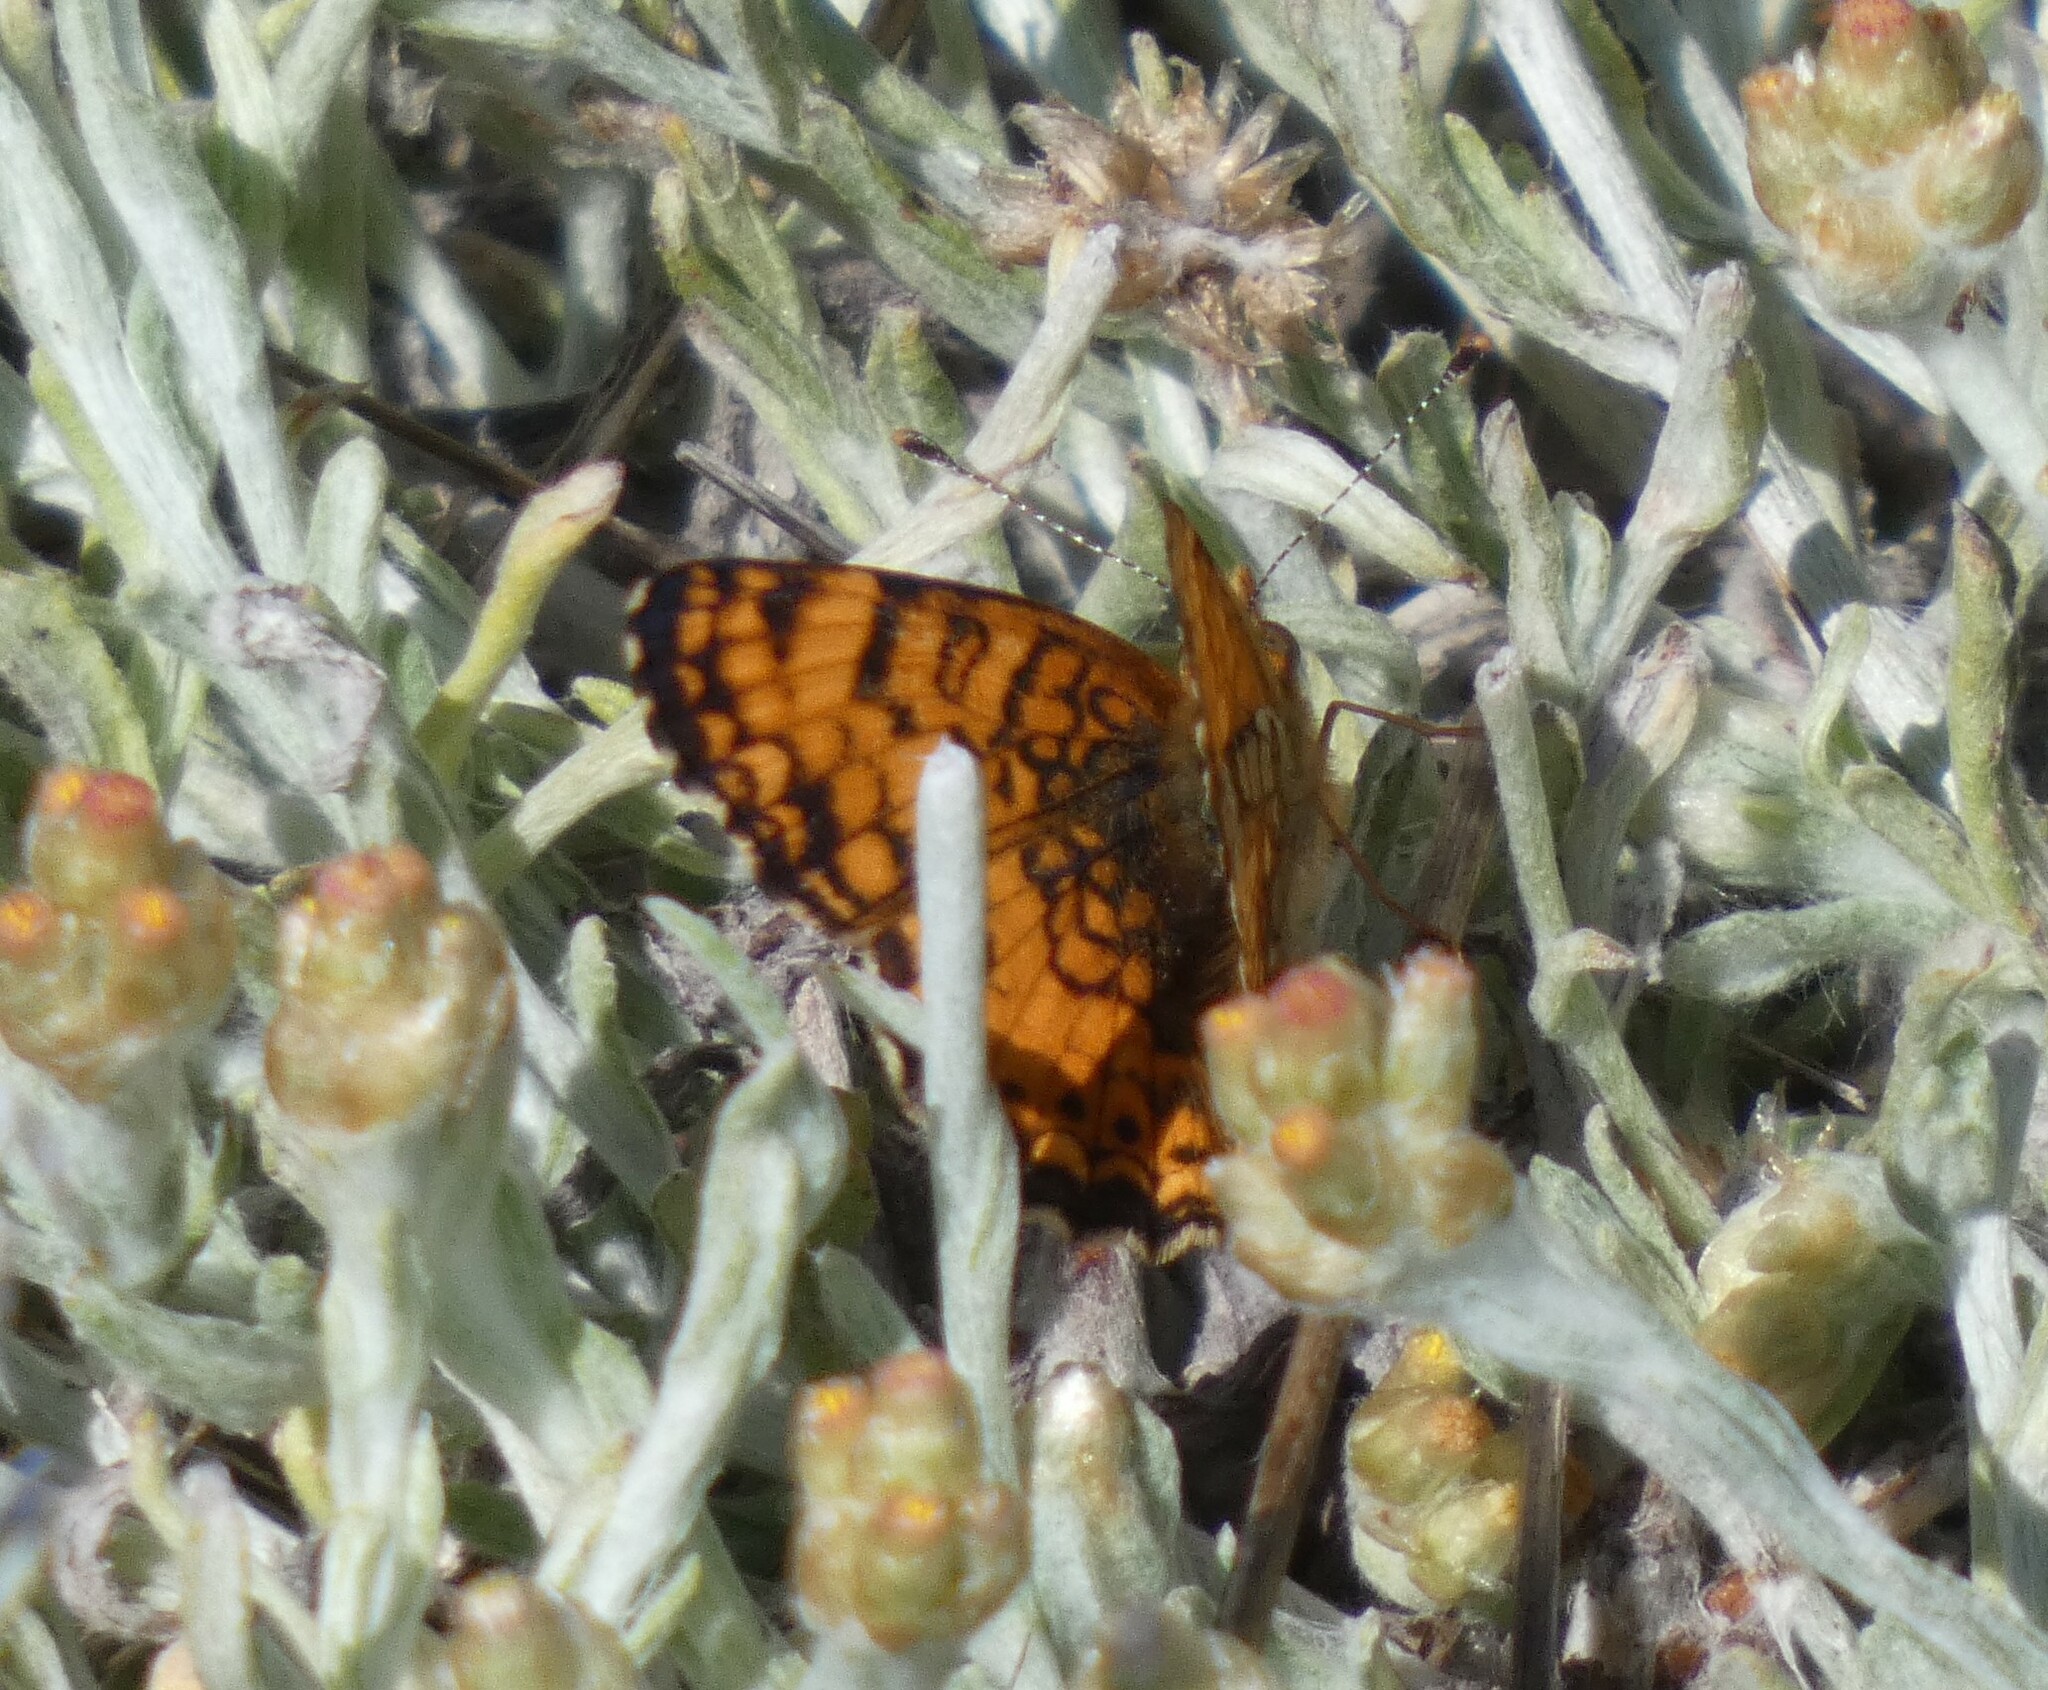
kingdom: Animalia
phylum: Arthropoda
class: Insecta
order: Lepidoptera
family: Nymphalidae
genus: Eresia
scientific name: Eresia aveyrona
